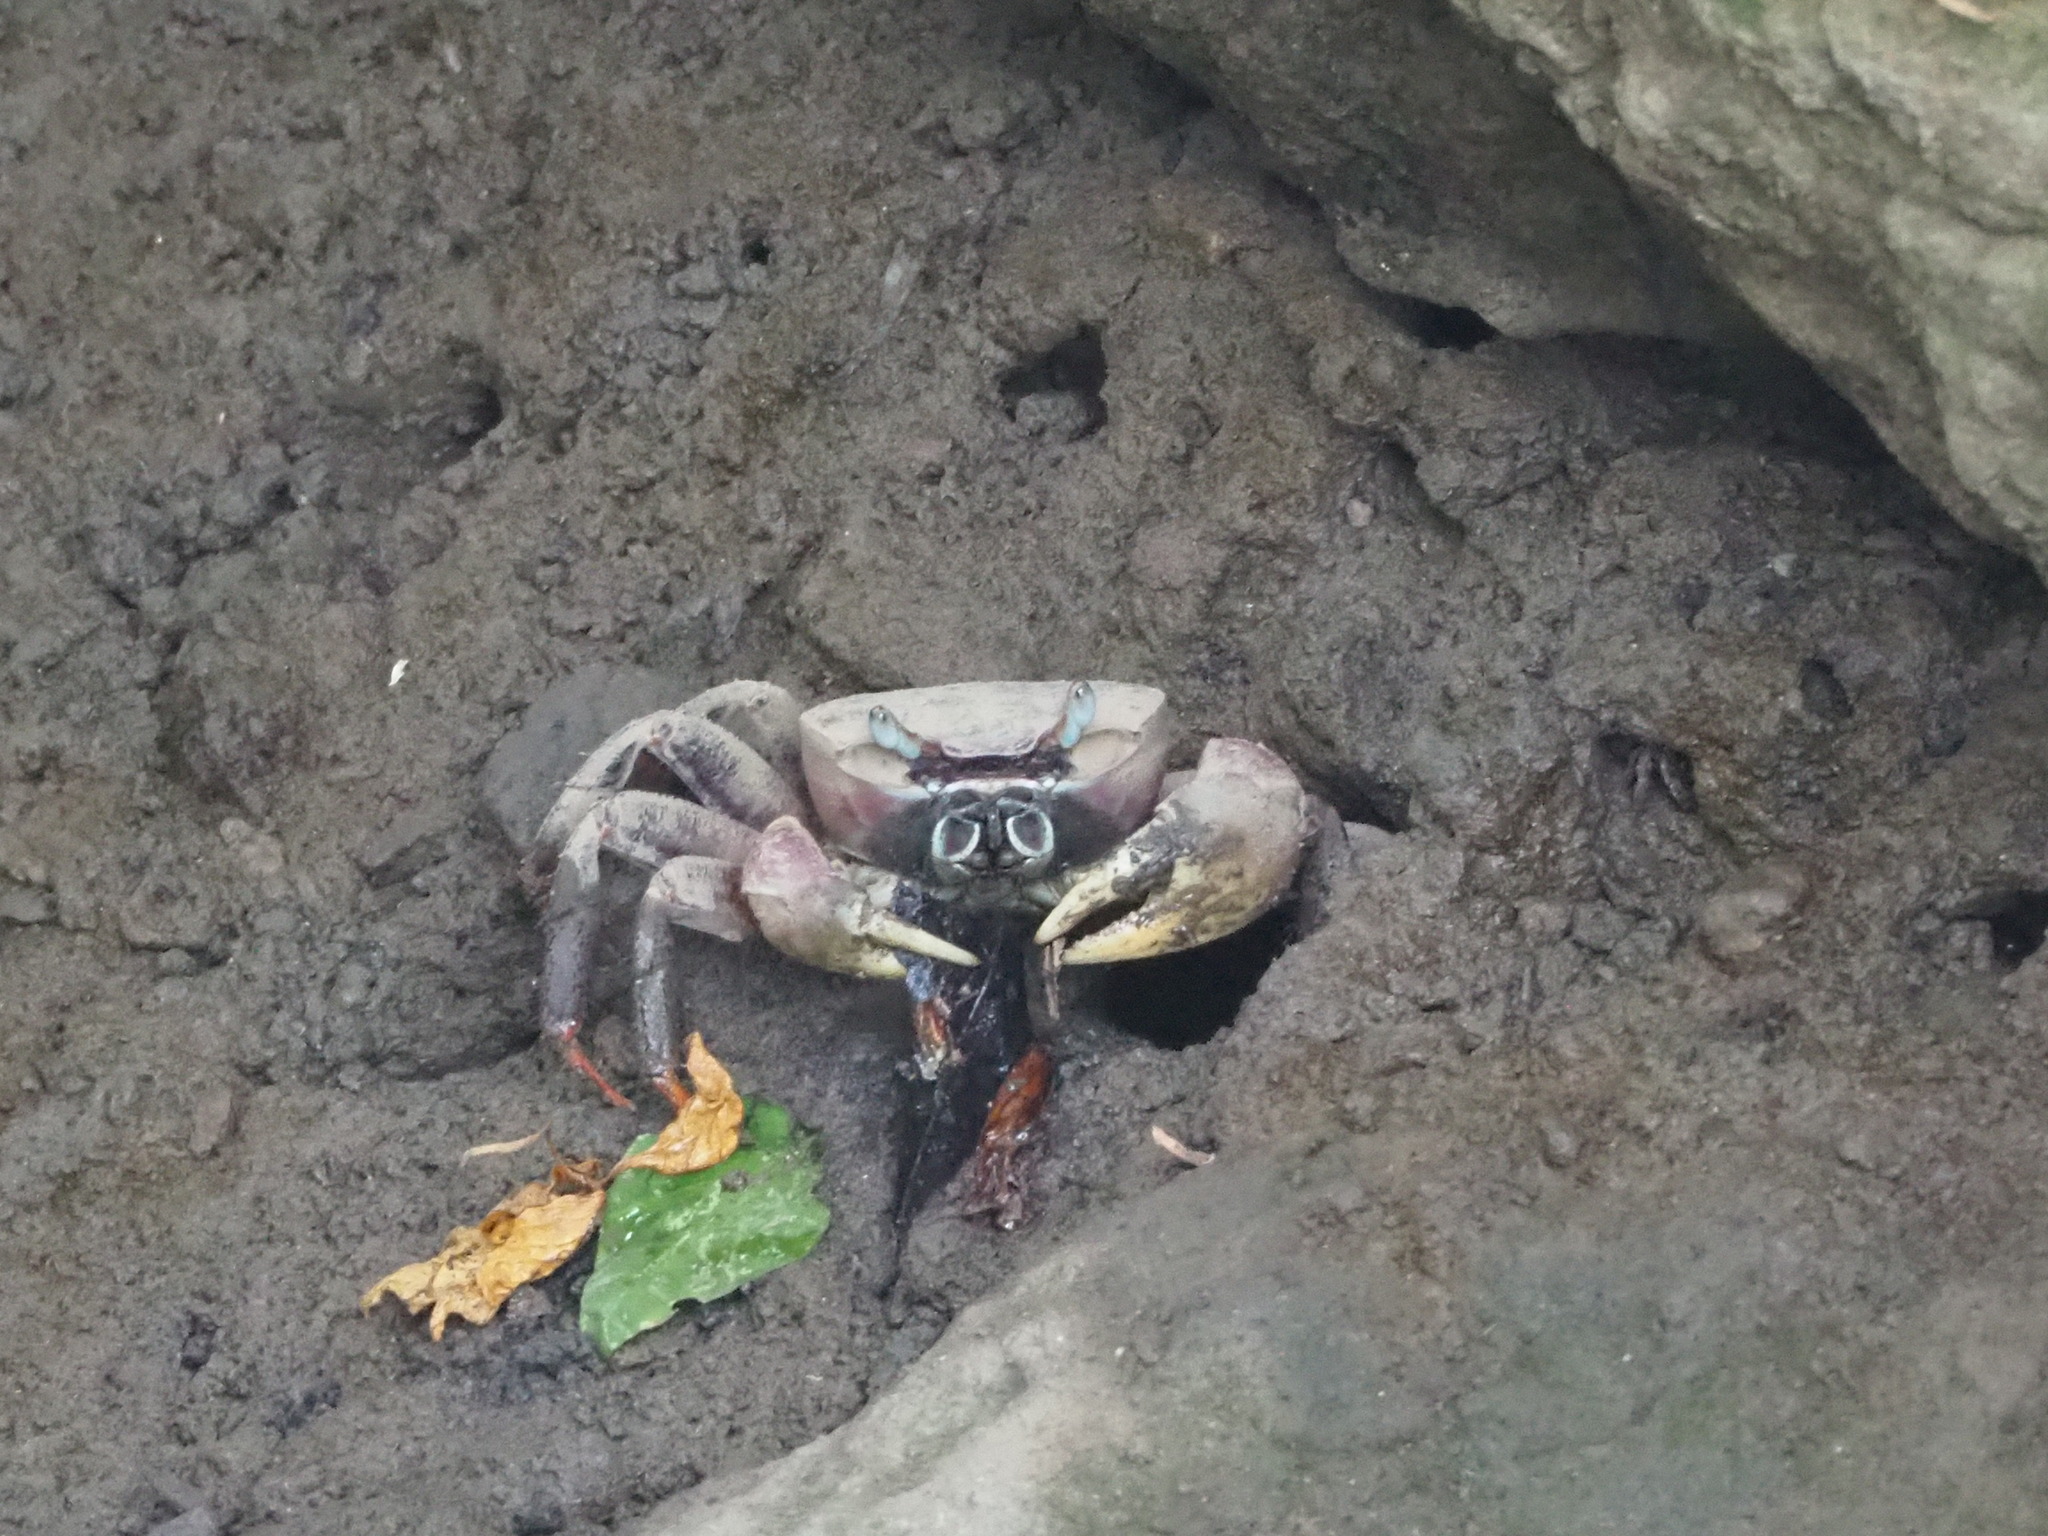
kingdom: Animalia
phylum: Arthropoda
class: Malacostraca
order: Decapoda
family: Gecarcinidae
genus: Cardisoma
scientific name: Cardisoma carnifex
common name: Brown land crab
